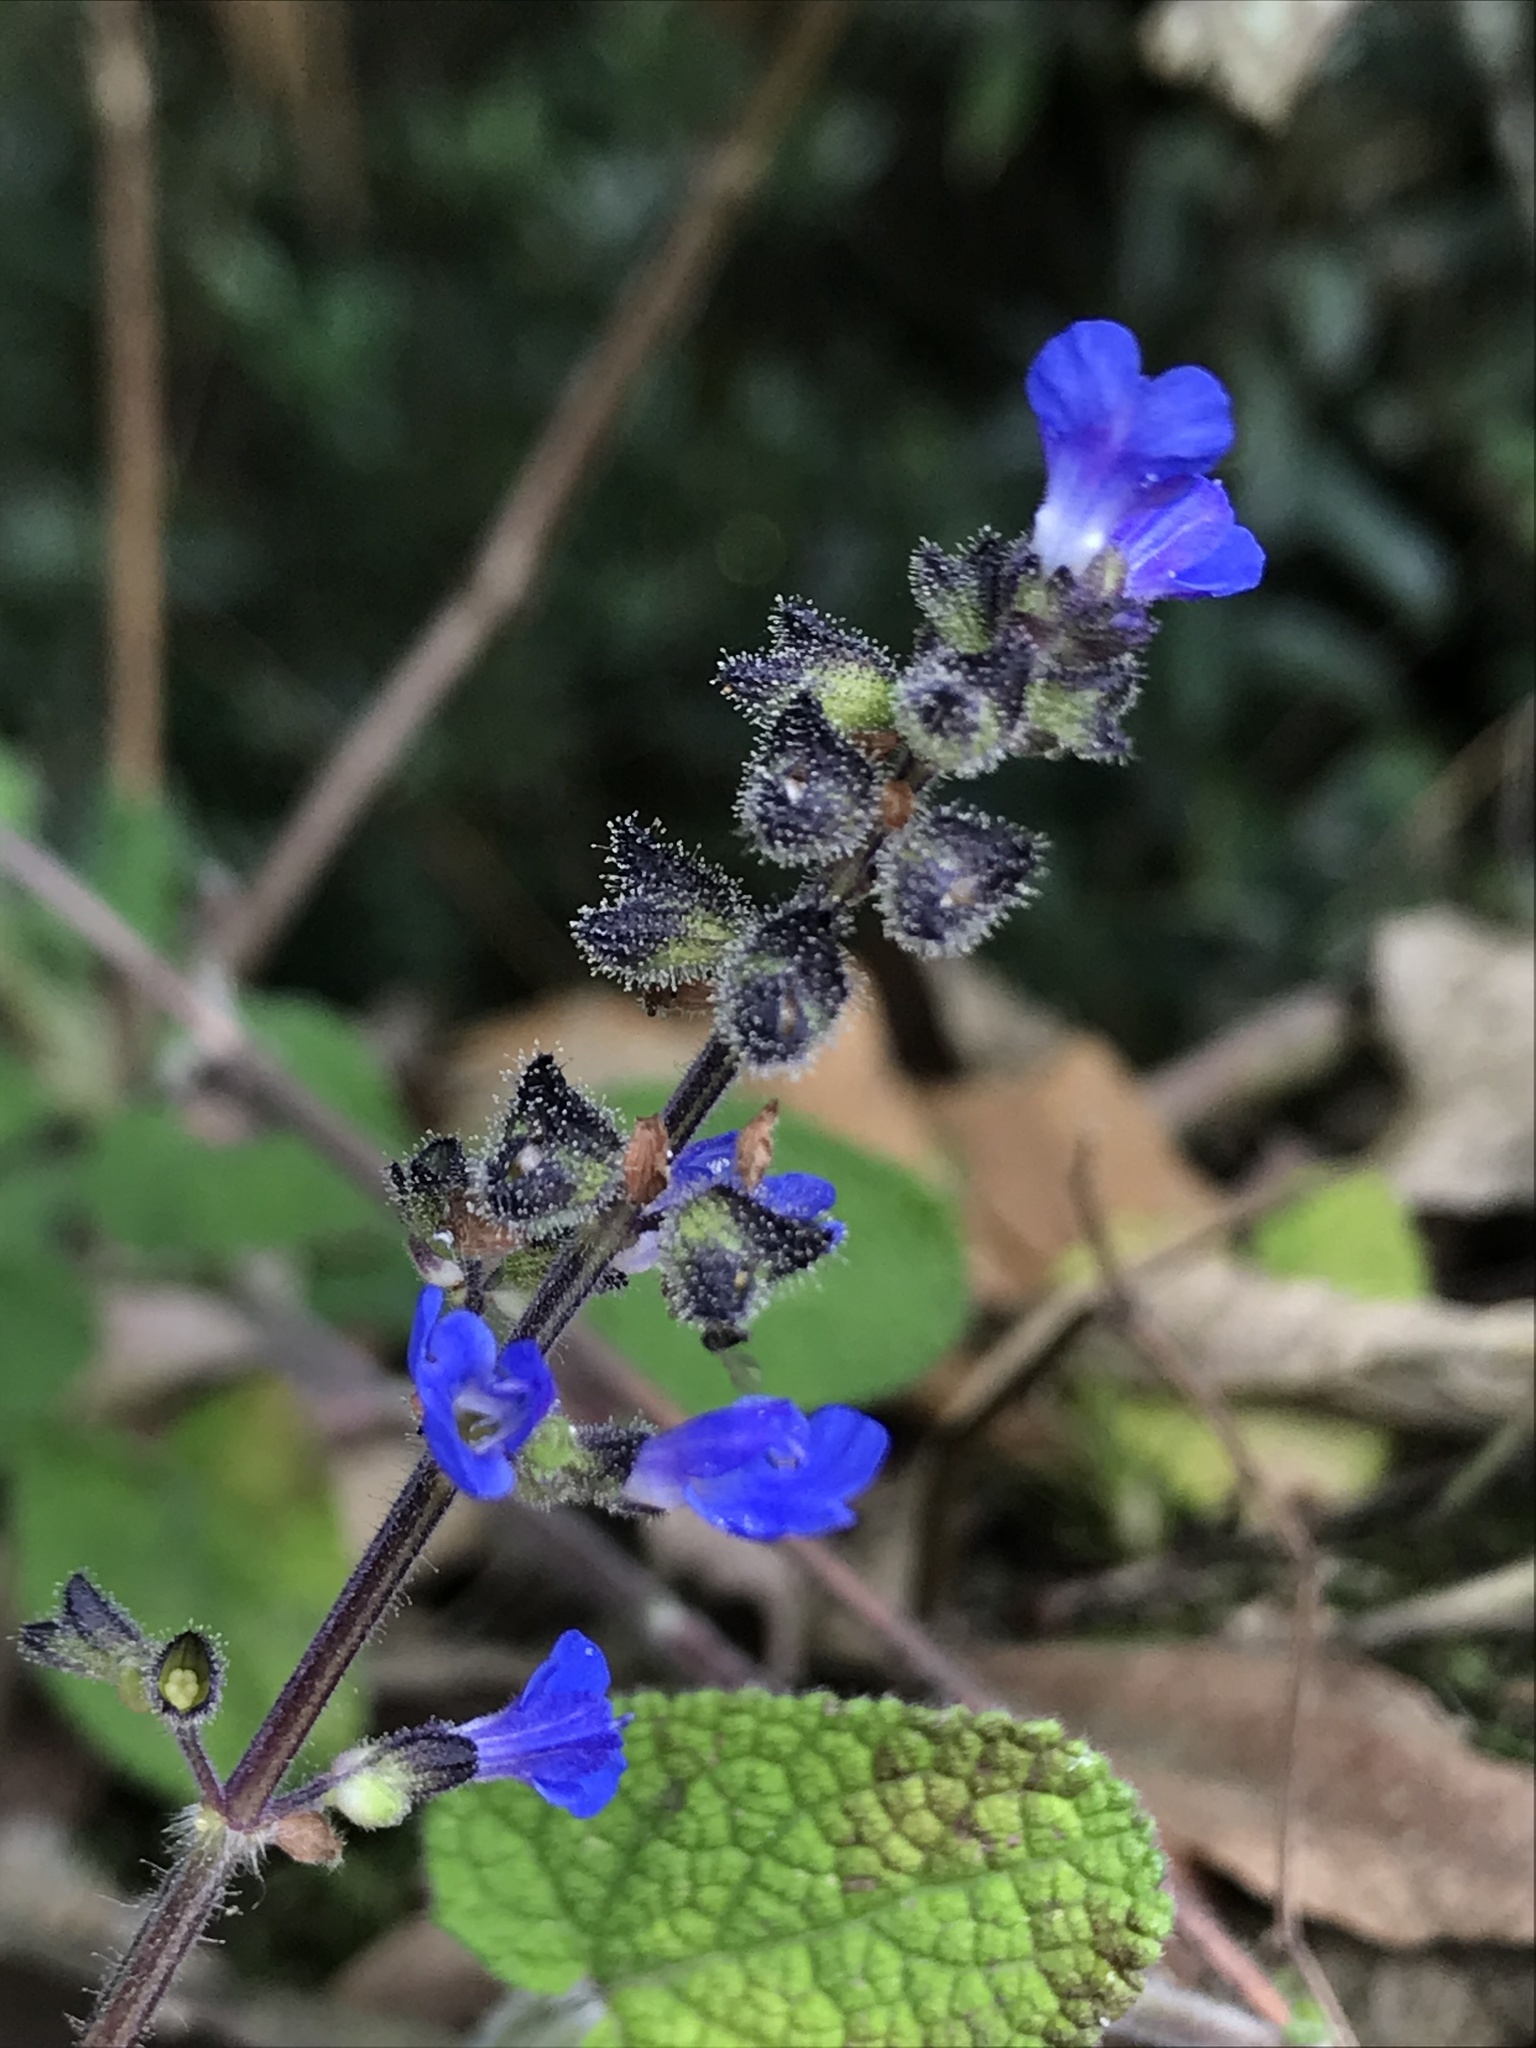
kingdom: Plantae
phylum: Tracheophyta
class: Magnoliopsida
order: Lamiales
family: Lamiaceae
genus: Salvia
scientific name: Salvia palifolia
